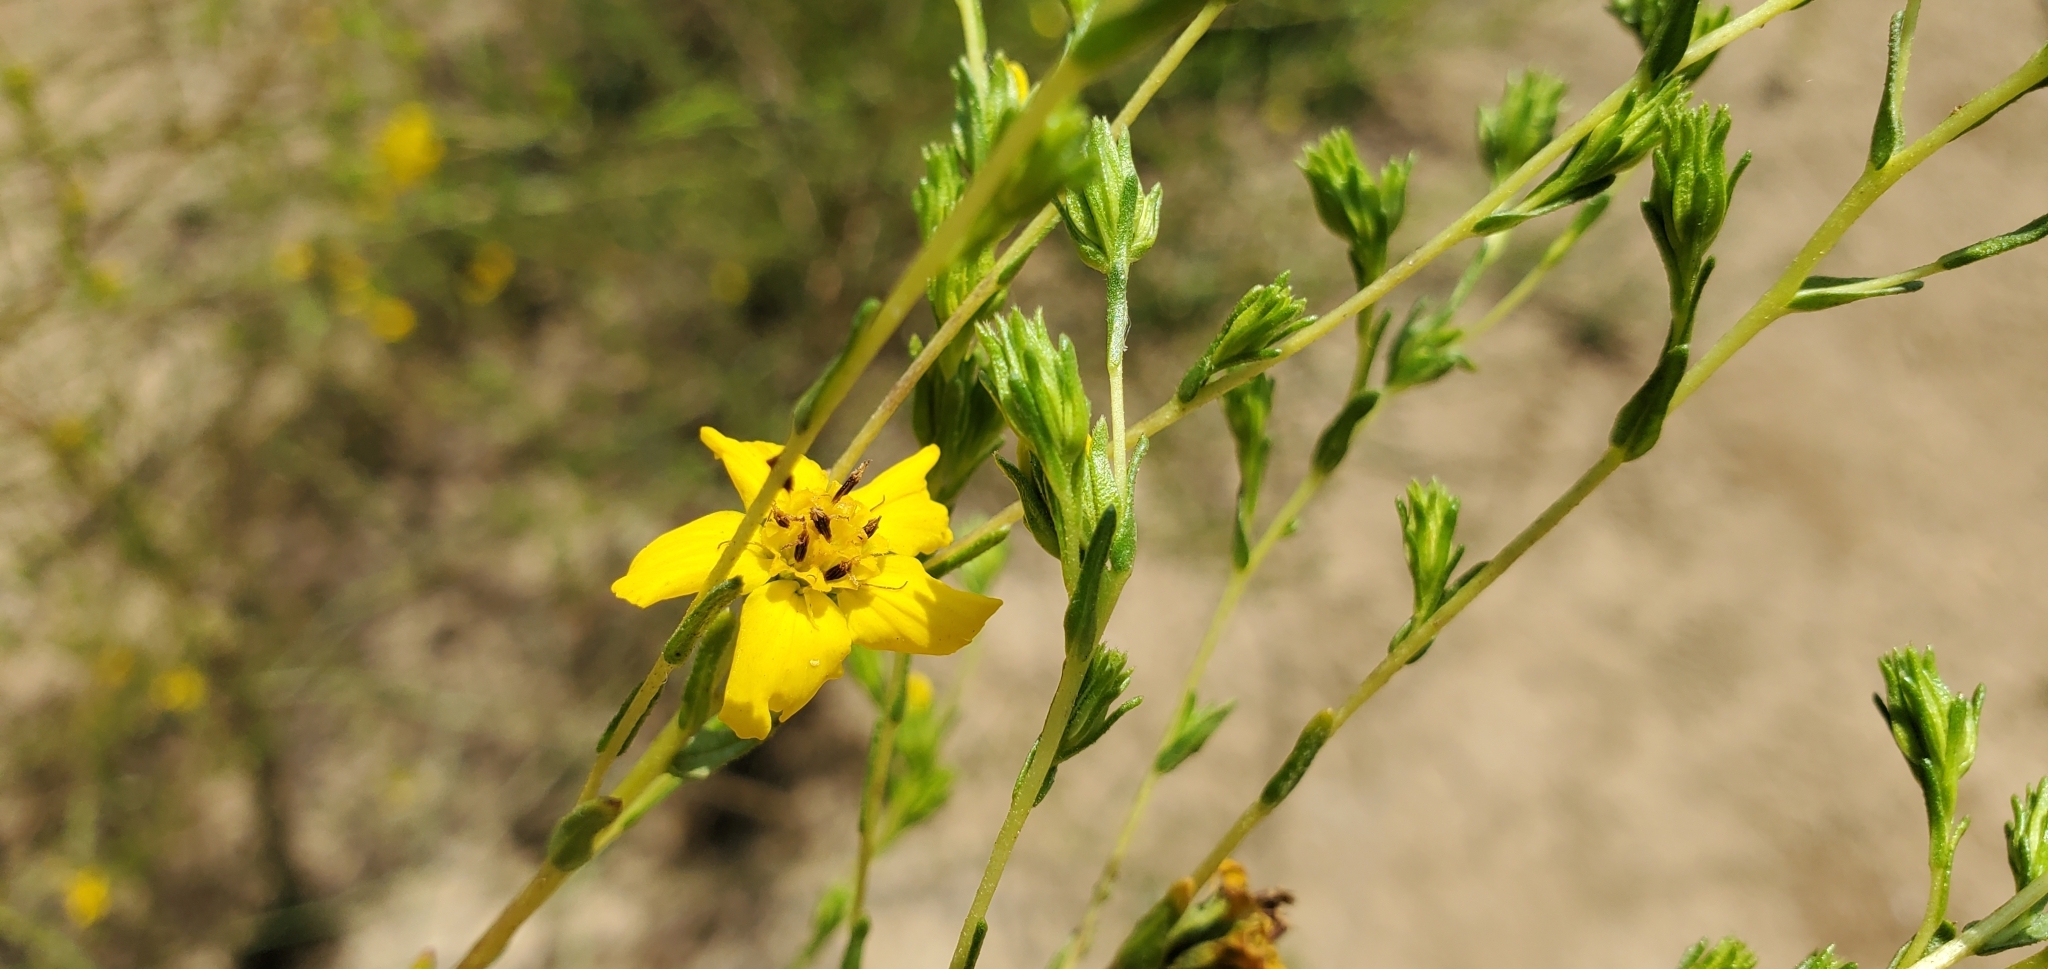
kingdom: Plantae
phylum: Tracheophyta
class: Magnoliopsida
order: Asterales
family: Asteraceae
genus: Deinandra
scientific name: Deinandra fasciculata
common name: Clustered tarweed
